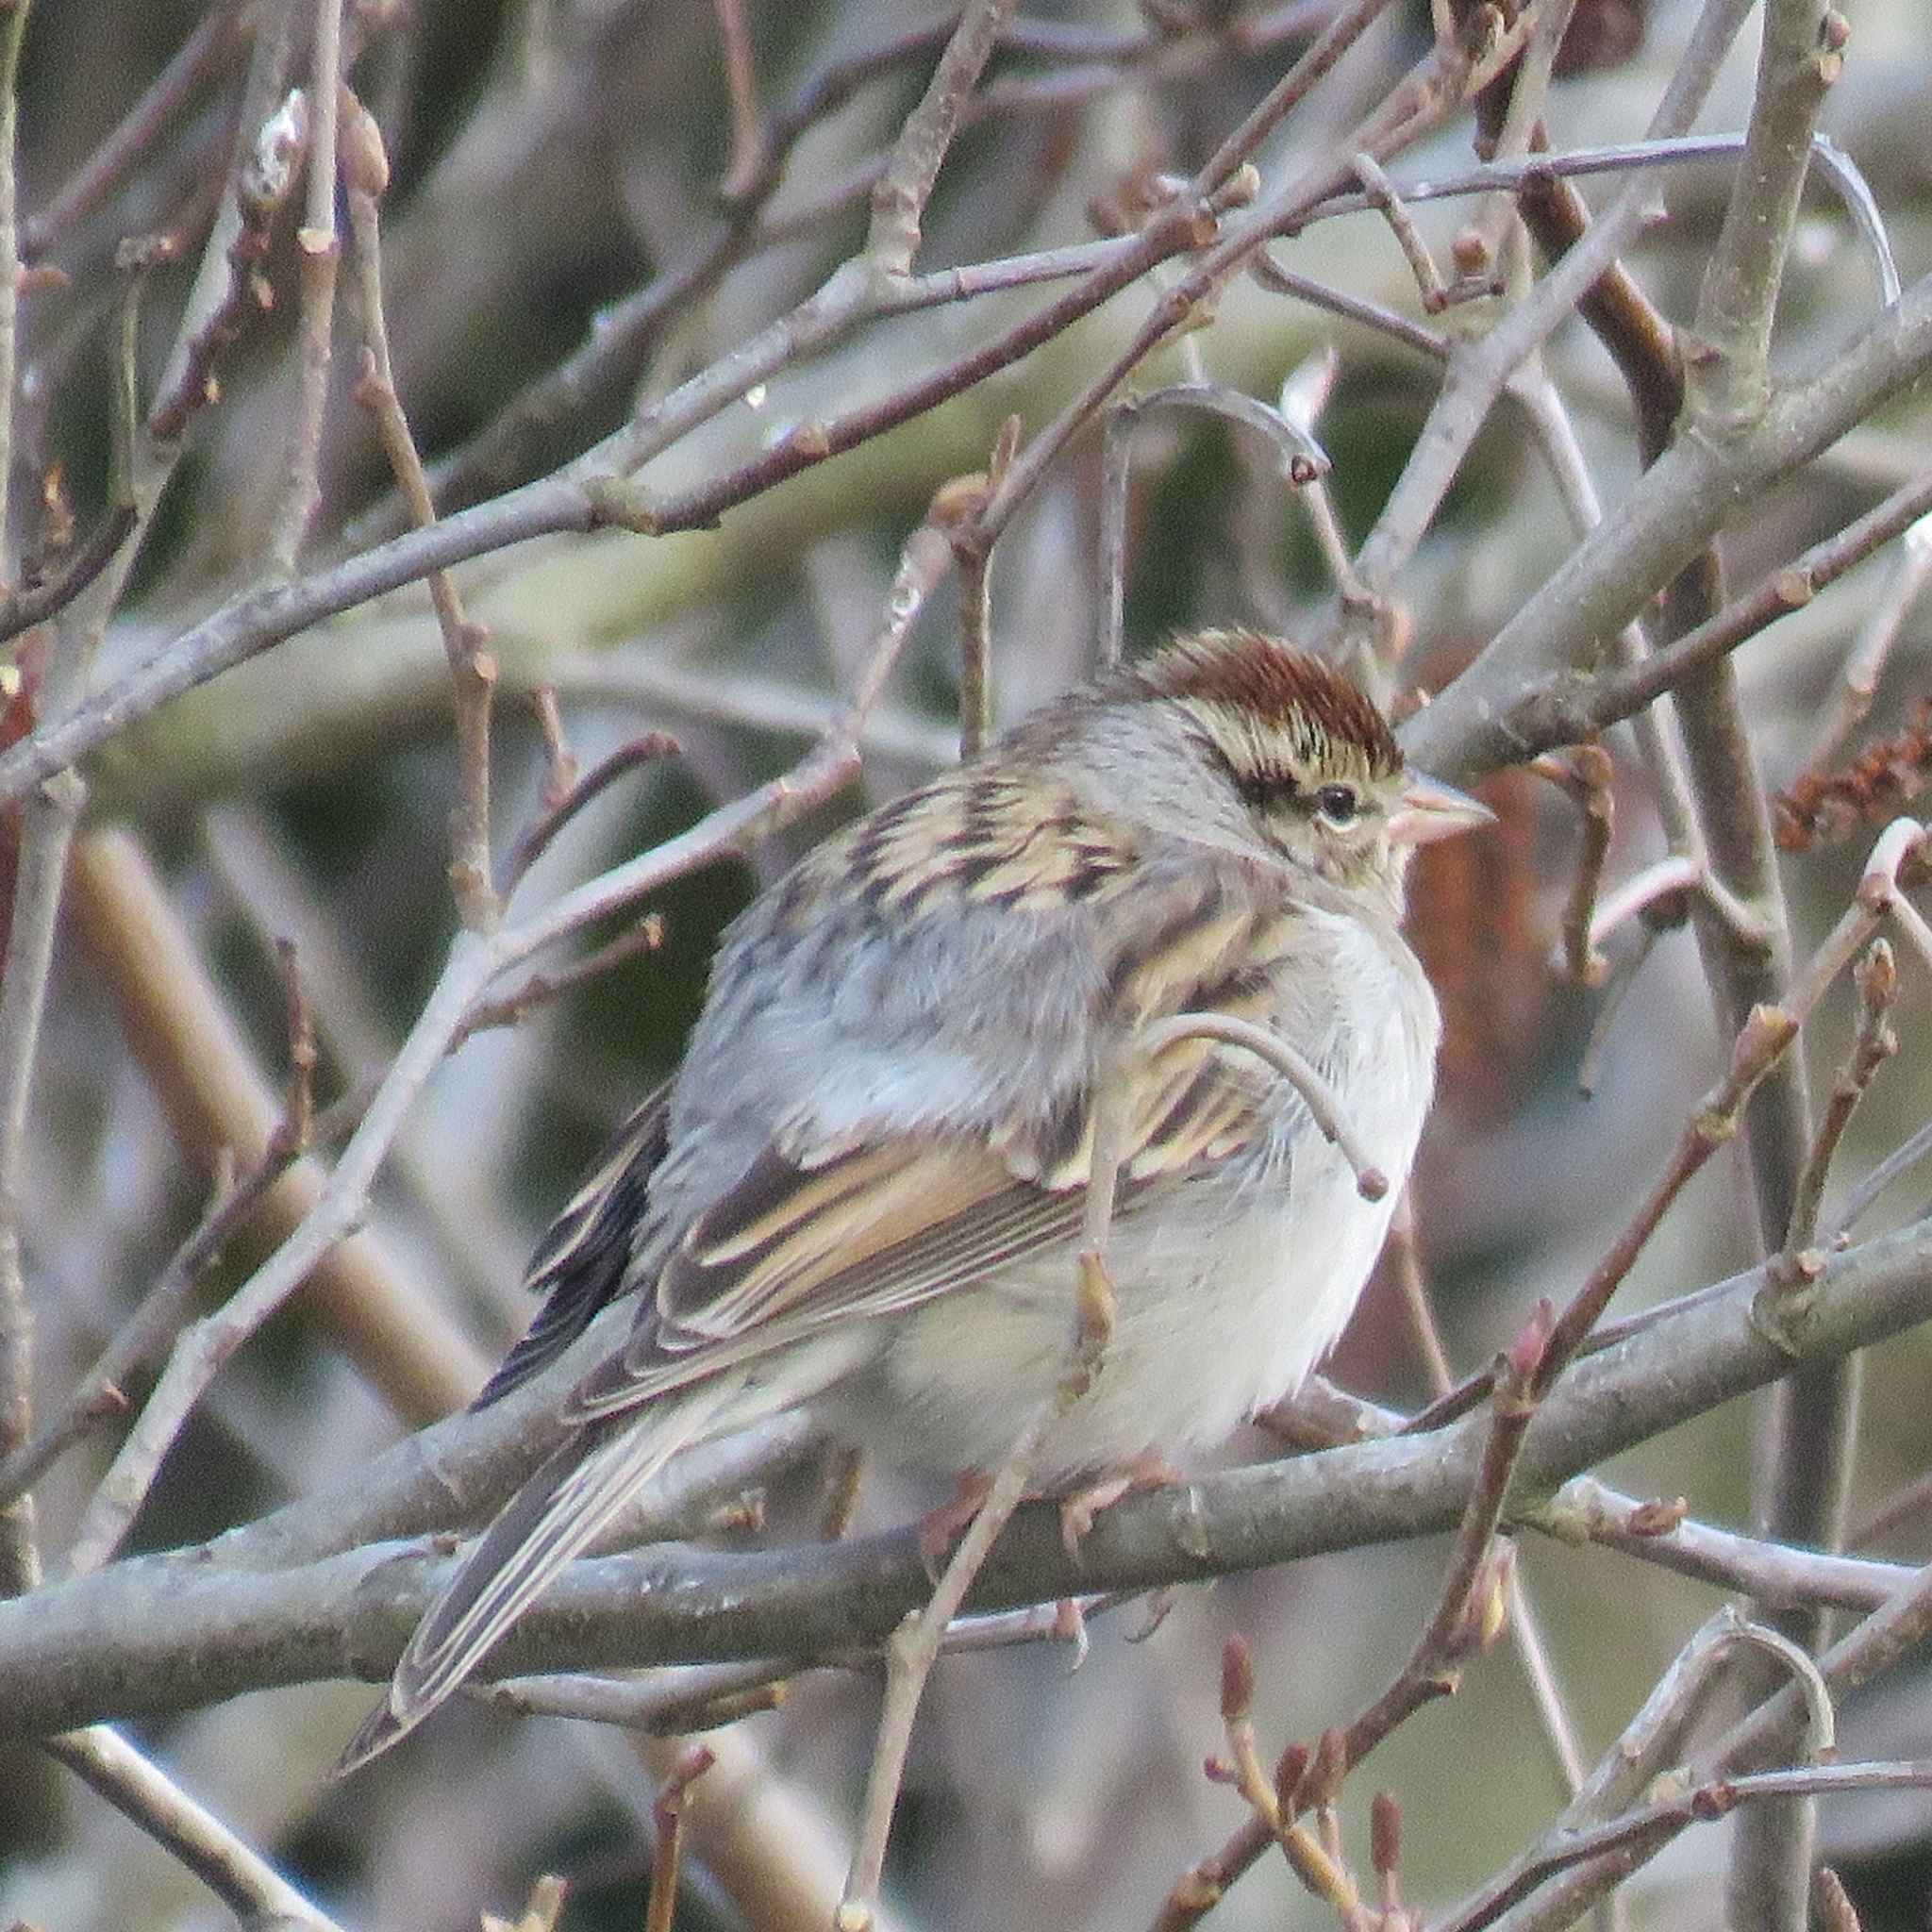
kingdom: Animalia
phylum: Chordata
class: Aves
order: Passeriformes
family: Passerellidae
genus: Spizella
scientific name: Spizella passerina
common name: Chipping sparrow
